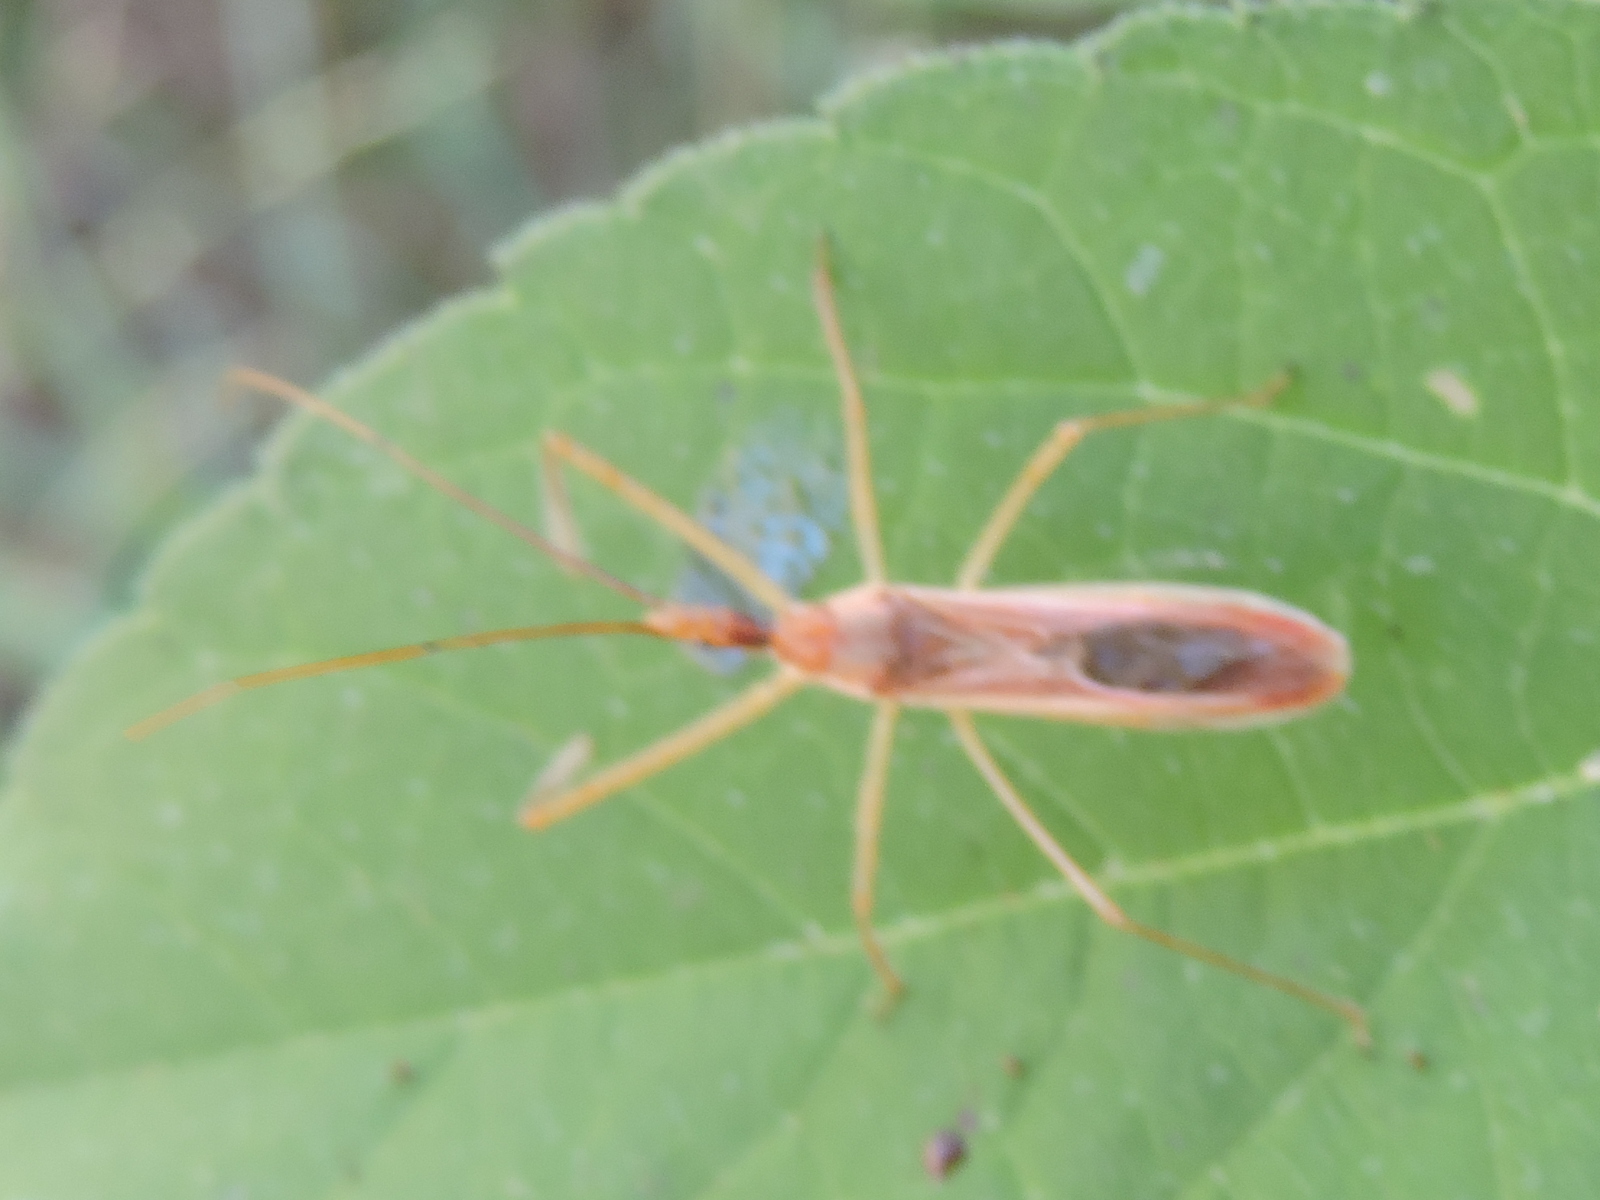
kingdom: Animalia
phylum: Arthropoda
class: Insecta
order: Hemiptera
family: Reduviidae
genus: Zelus
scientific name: Zelus cervicalis
